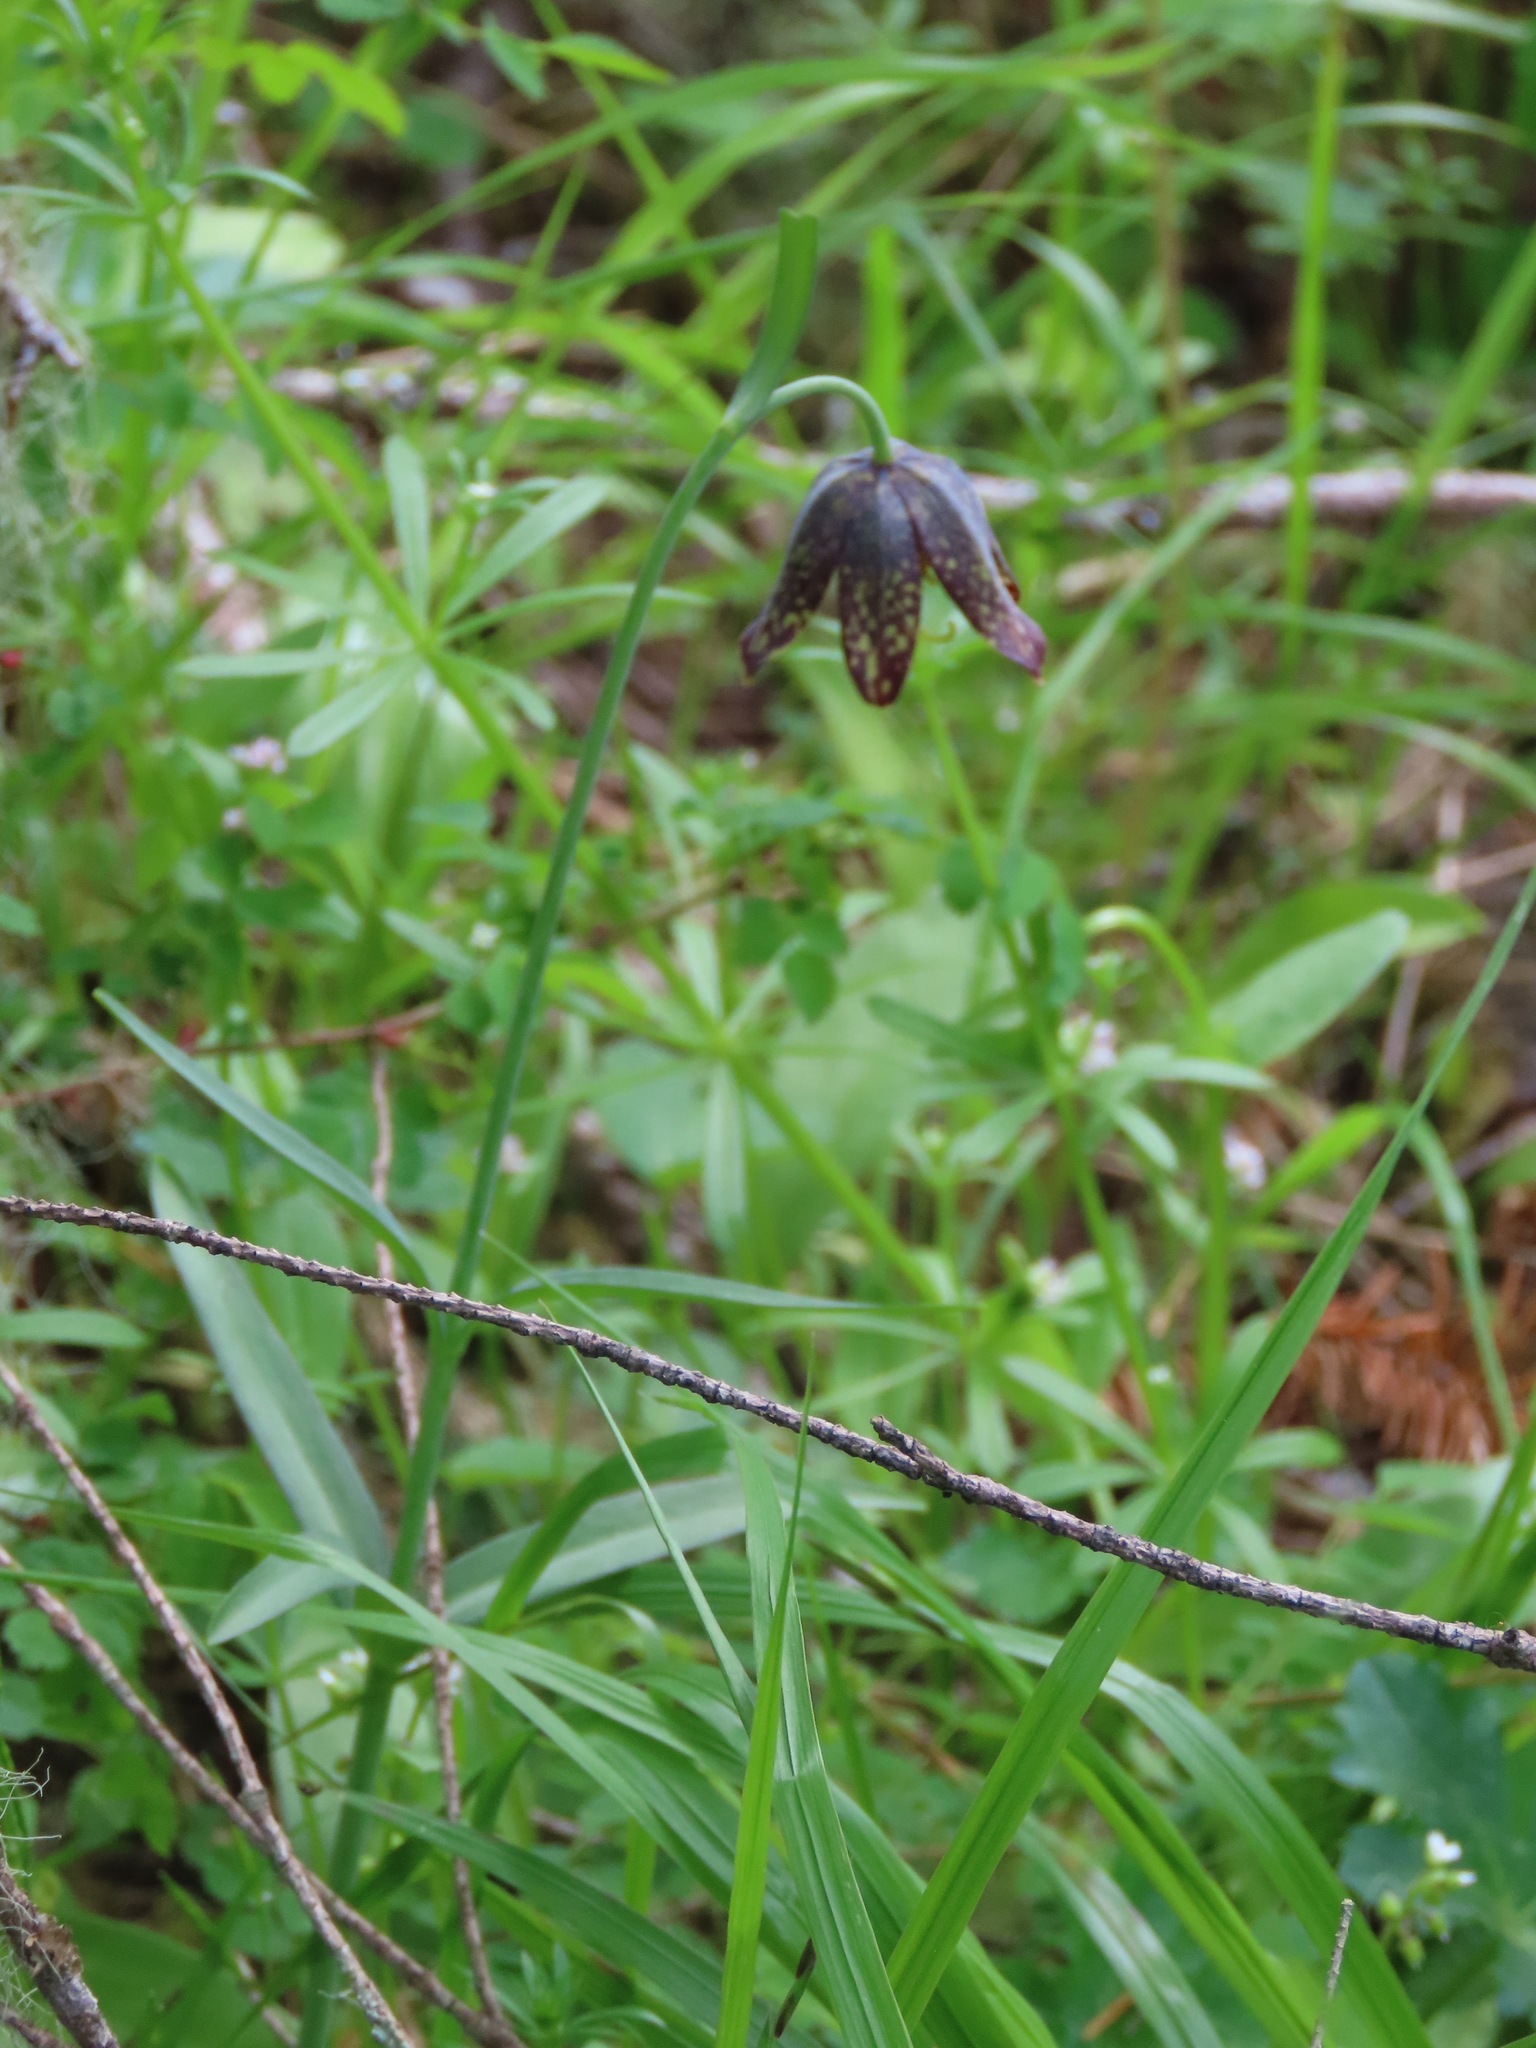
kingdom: Plantae
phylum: Tracheophyta
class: Liliopsida
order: Liliales
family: Liliaceae
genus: Fritillaria
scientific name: Fritillaria affinis
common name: Ojai fritillary
